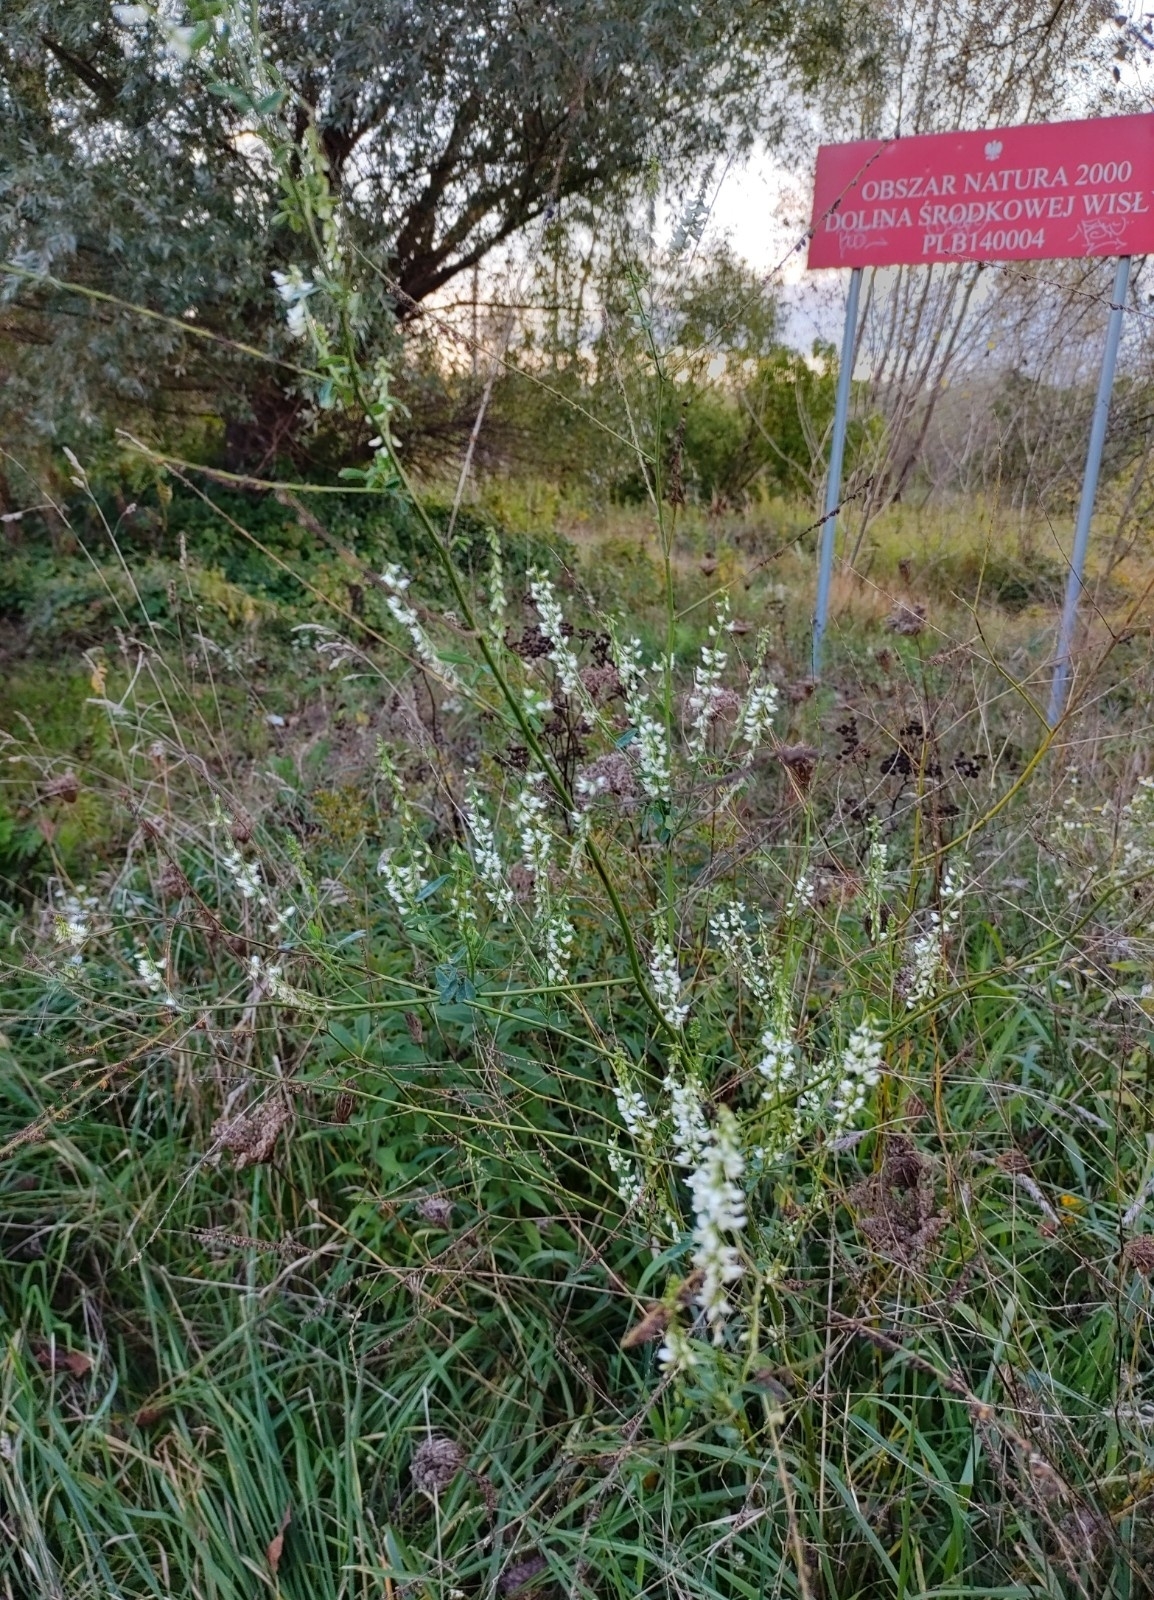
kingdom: Plantae
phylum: Tracheophyta
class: Magnoliopsida
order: Fabales
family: Fabaceae
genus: Melilotus
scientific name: Melilotus albus
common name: White melilot
